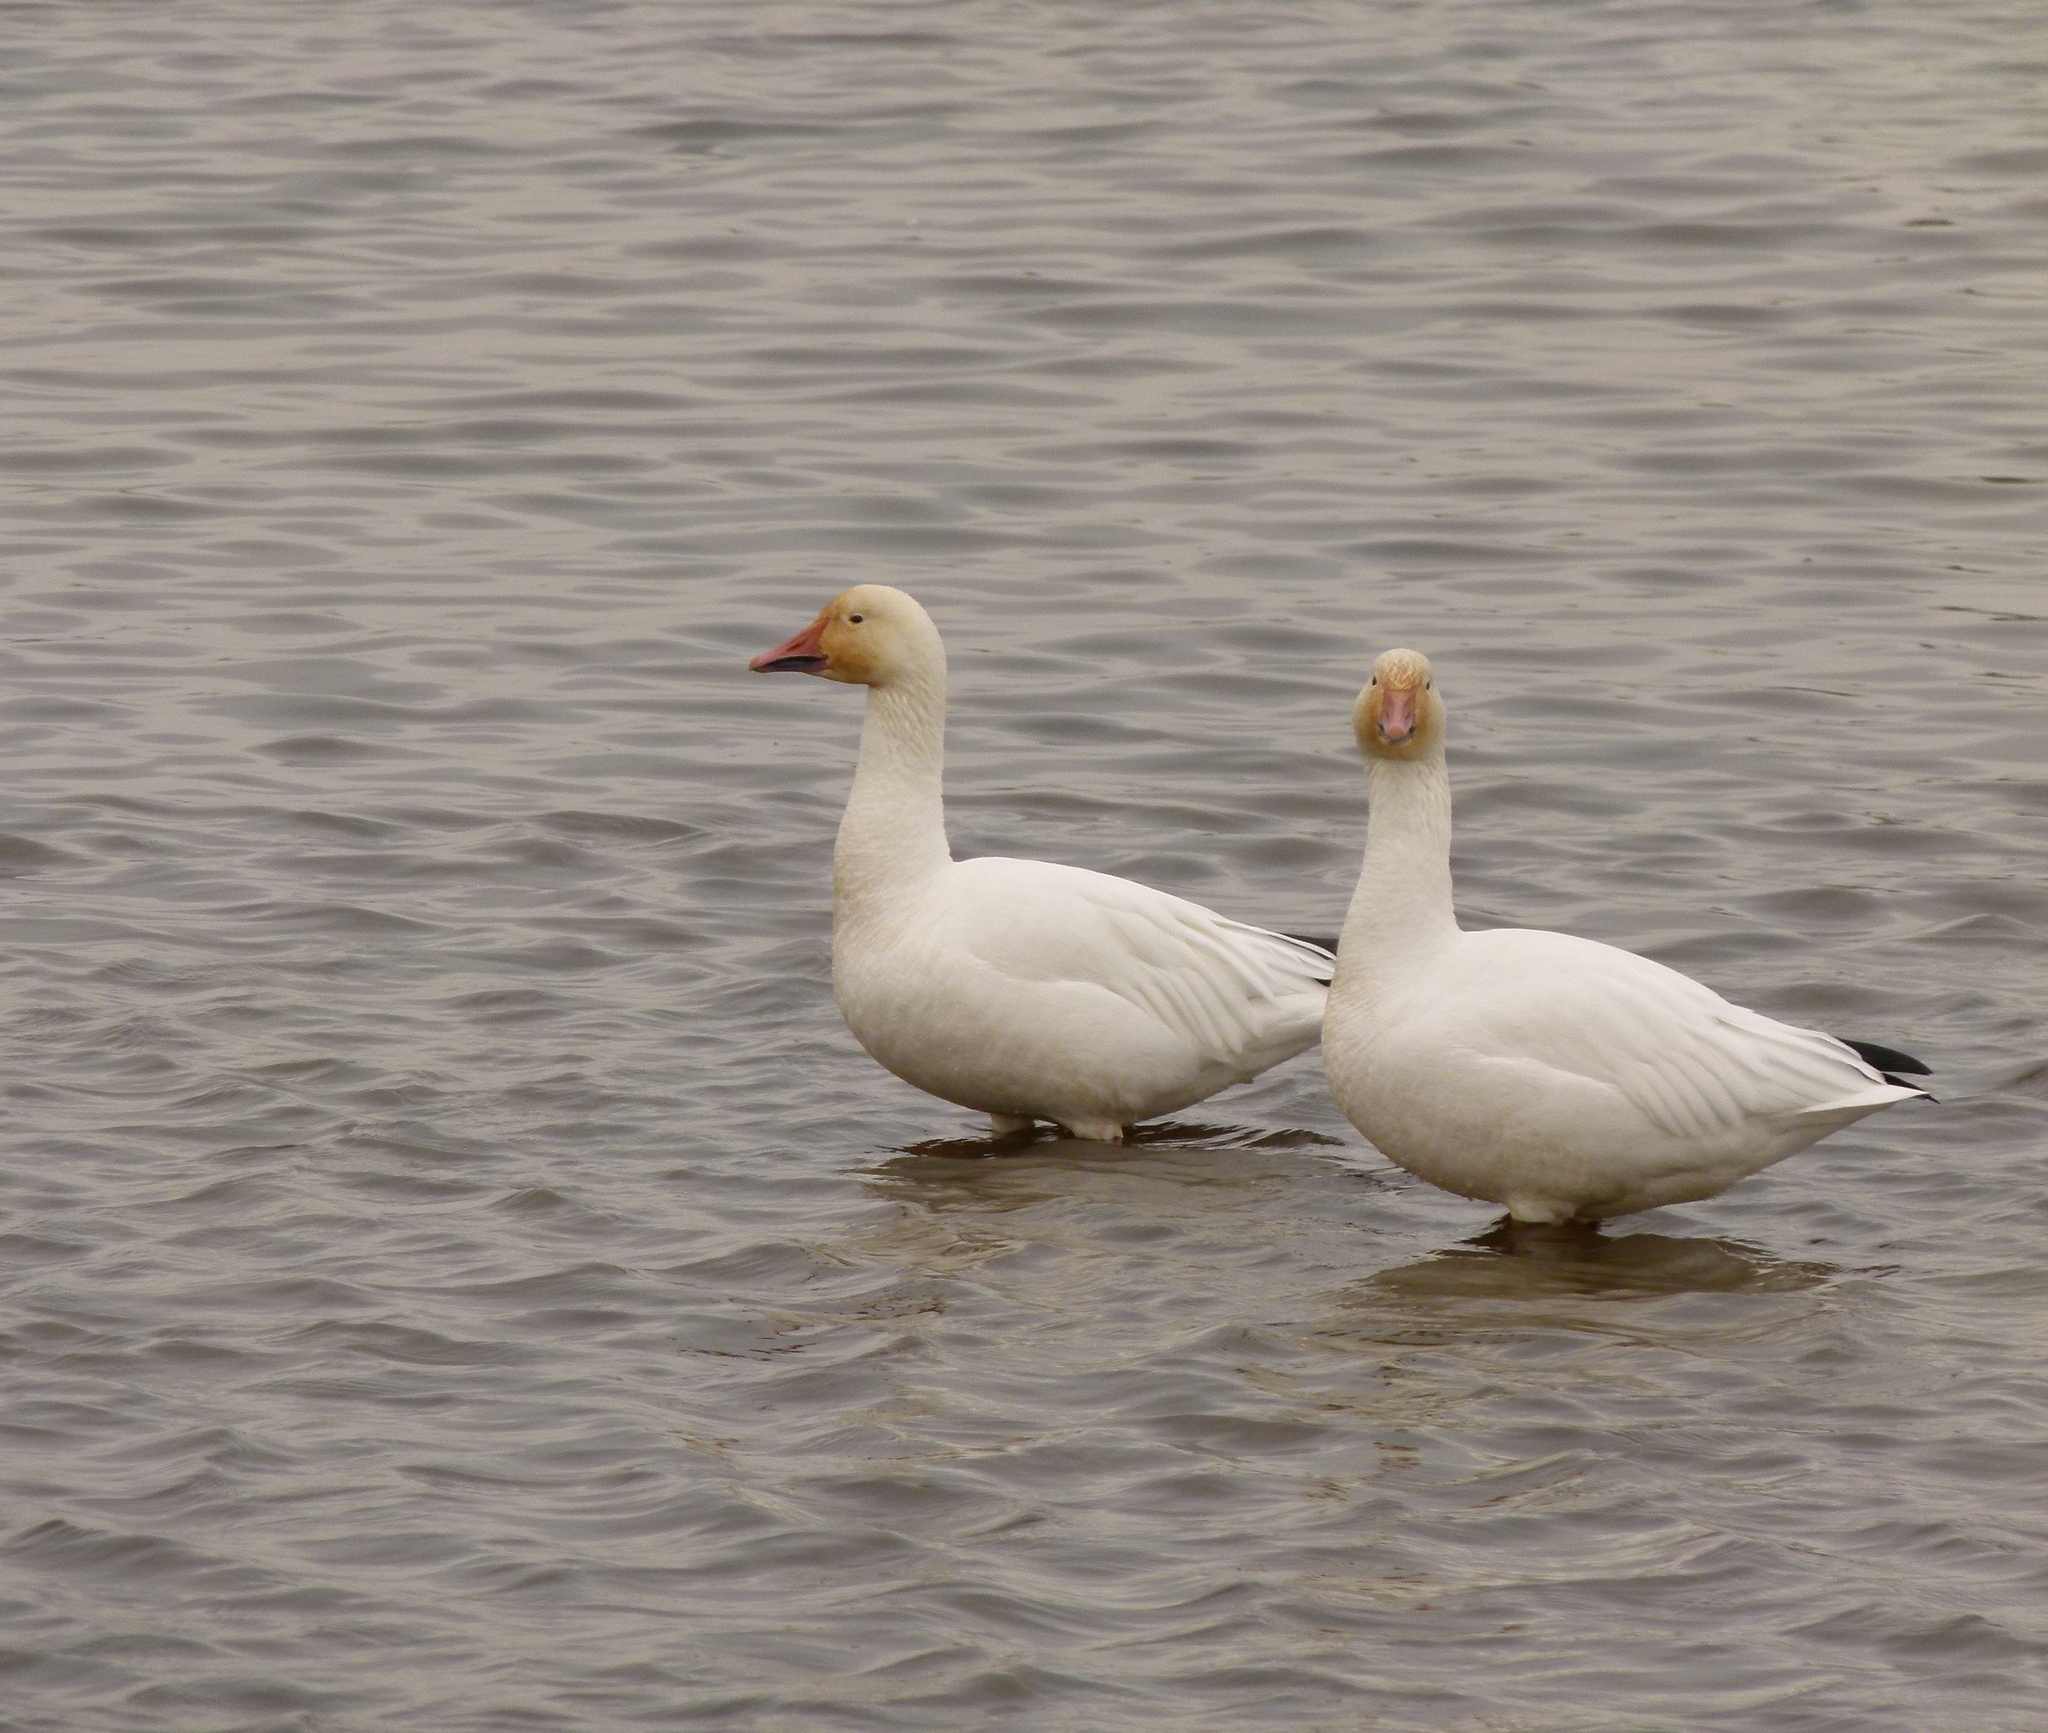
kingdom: Animalia
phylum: Chordata
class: Aves
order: Anseriformes
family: Anatidae
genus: Anser
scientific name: Anser caerulescens
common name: Snow goose
